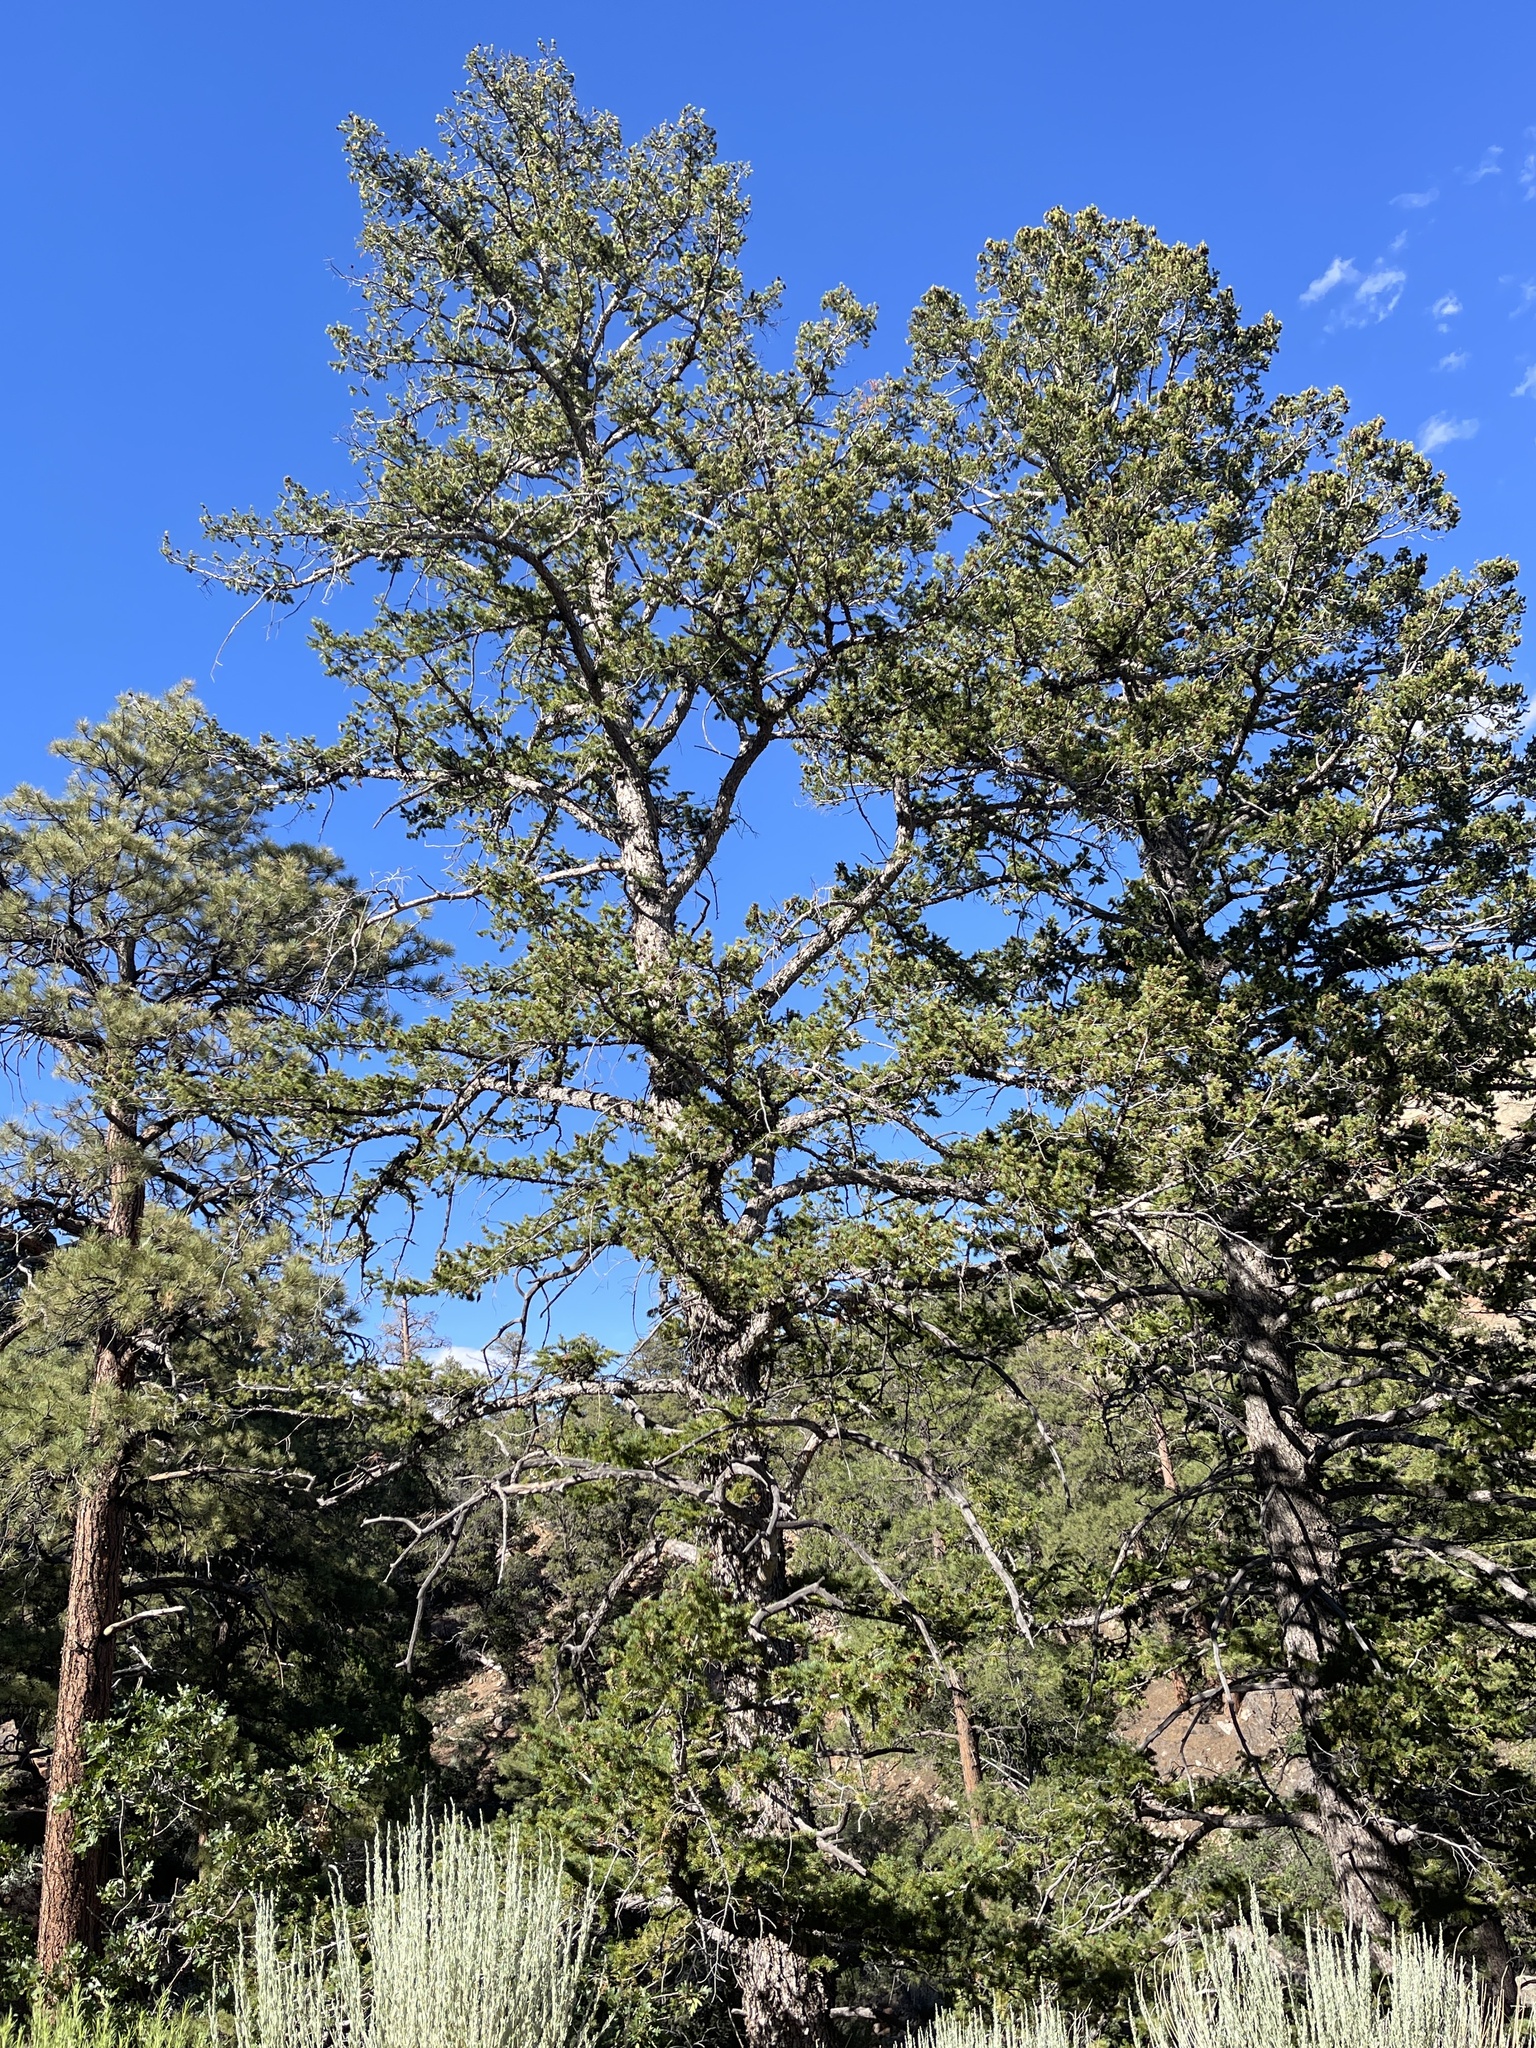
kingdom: Plantae
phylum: Tracheophyta
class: Pinopsida
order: Pinales
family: Pinaceae
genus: Pseudotsuga
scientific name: Pseudotsuga menziesii
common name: Douglas fir
